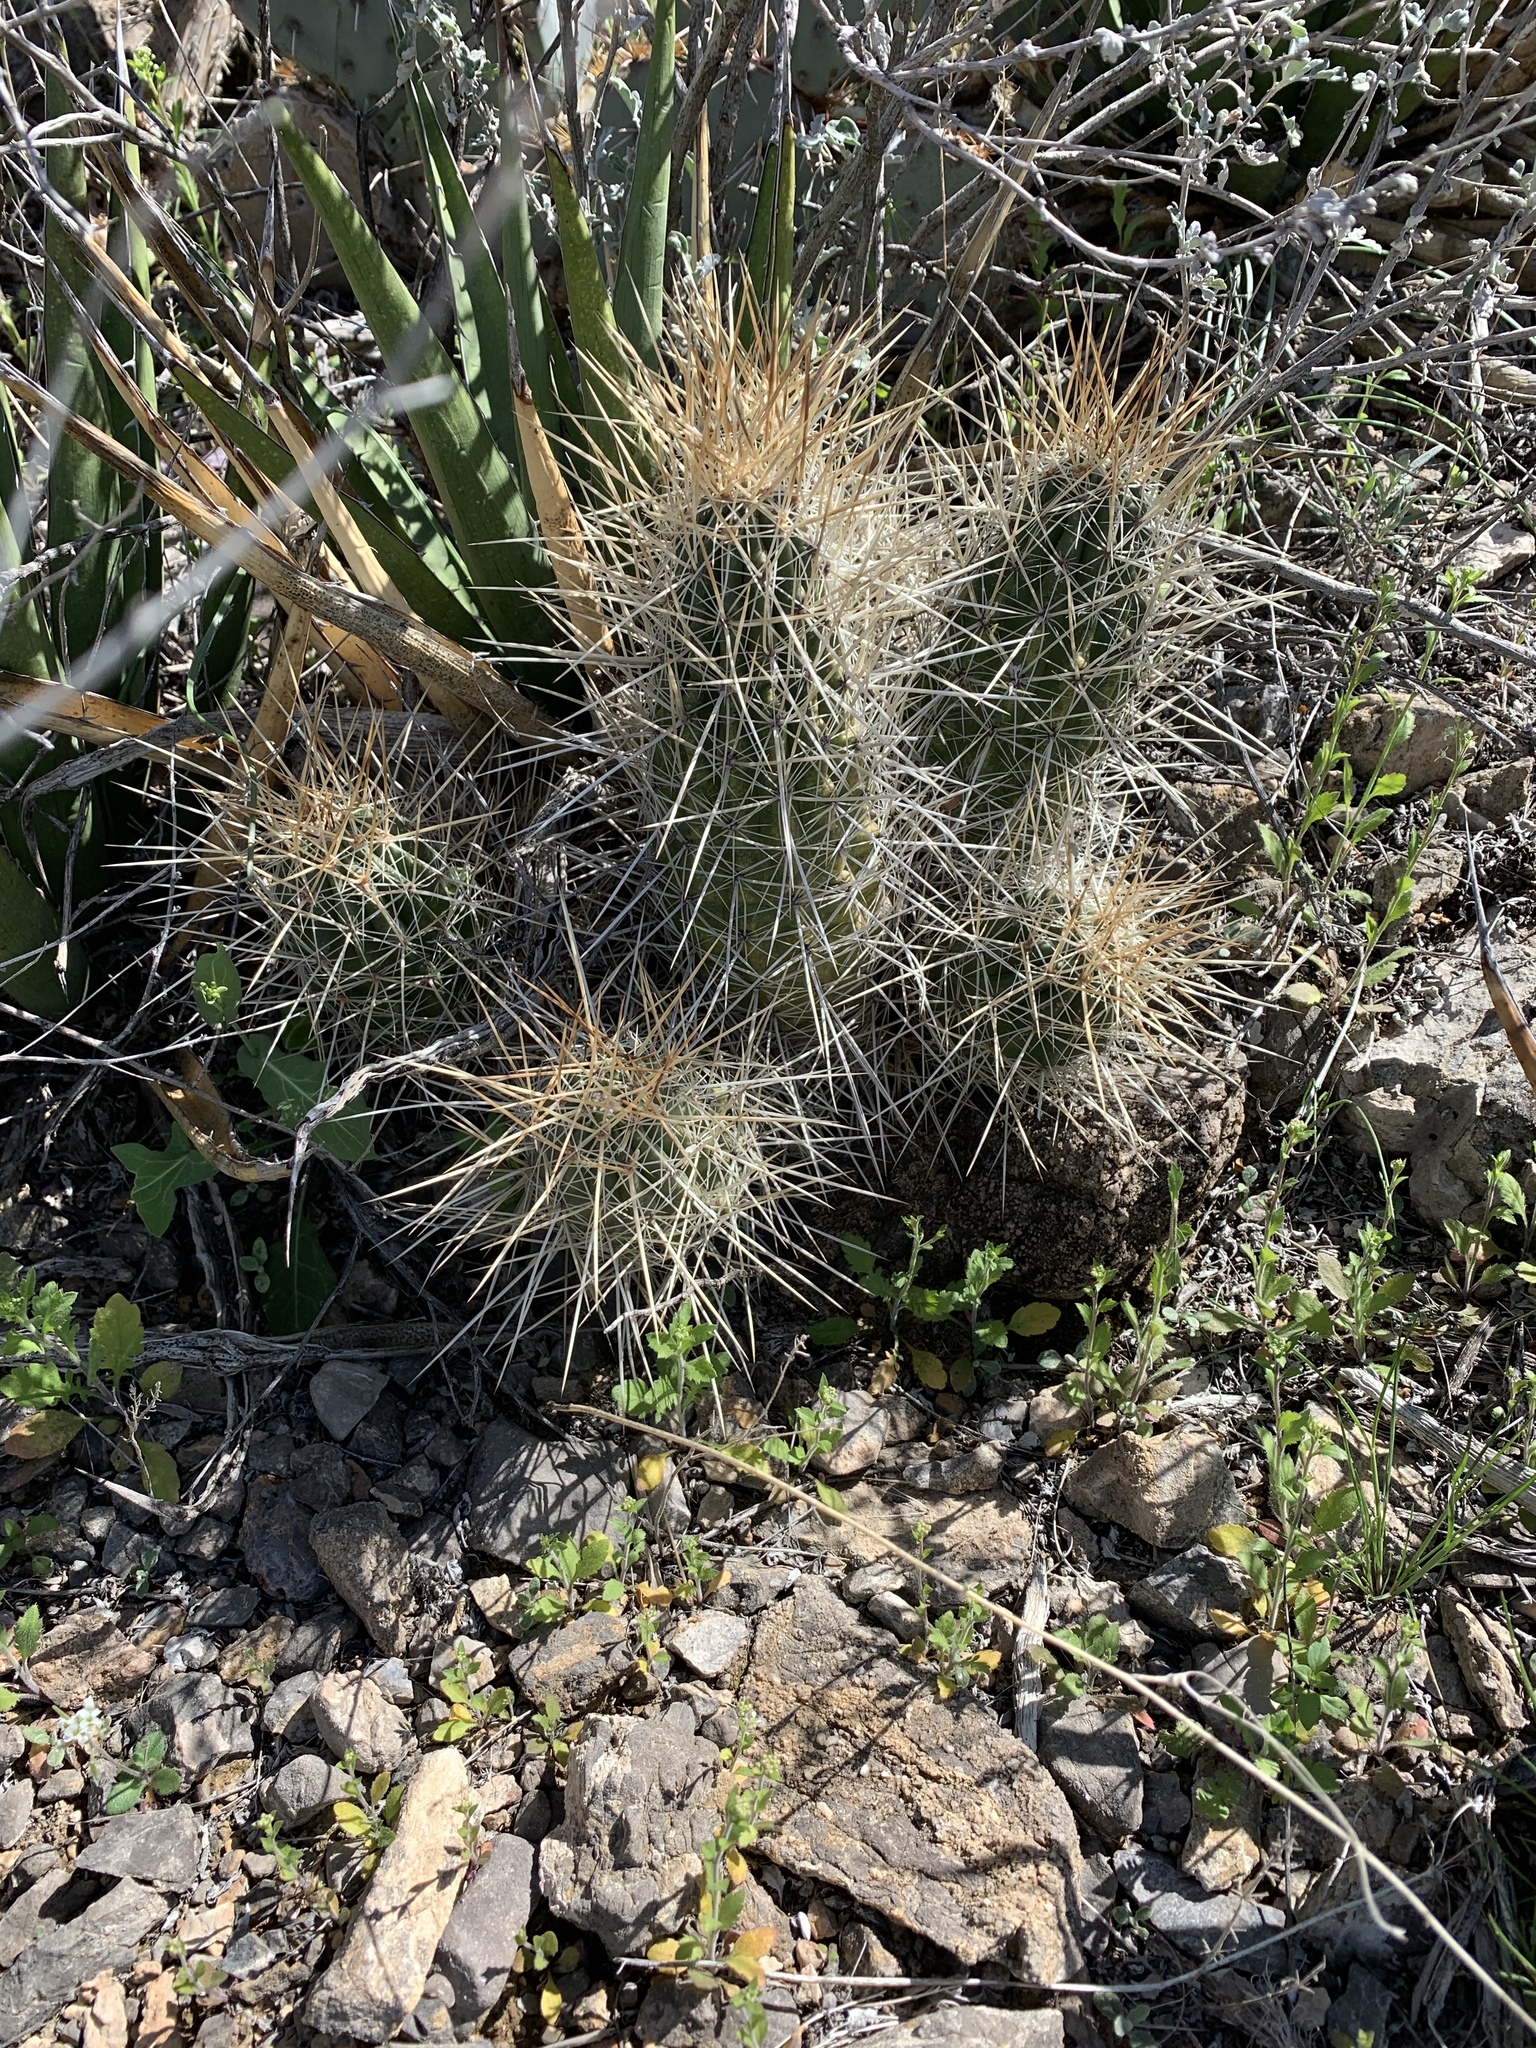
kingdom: Plantae
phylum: Tracheophyta
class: Magnoliopsida
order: Caryophyllales
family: Cactaceae
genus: Echinocereus
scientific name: Echinocereus stramineus
